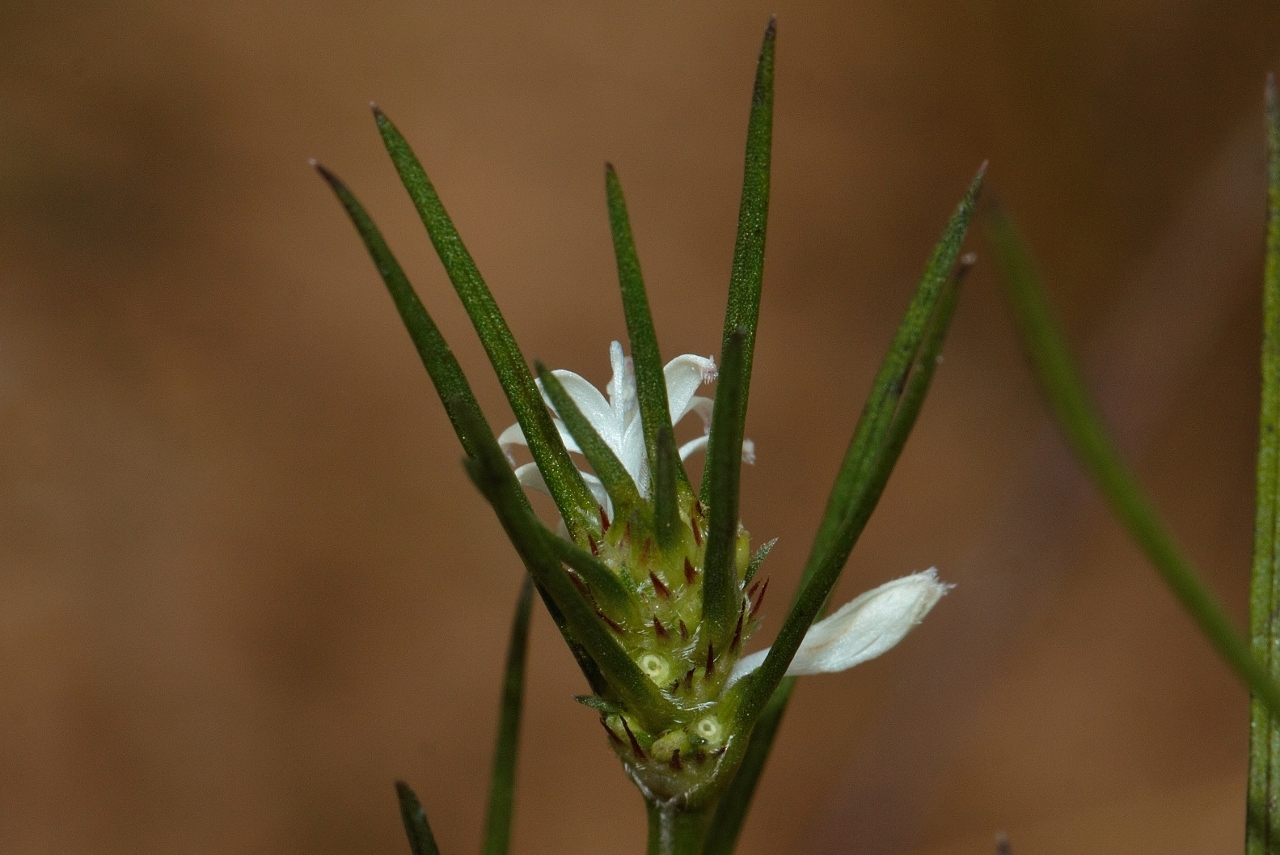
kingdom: Plantae
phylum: Tracheophyta
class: Magnoliopsida
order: Gentianales
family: Rubiaceae
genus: Spermacoce
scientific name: Spermacoce subvulgata
